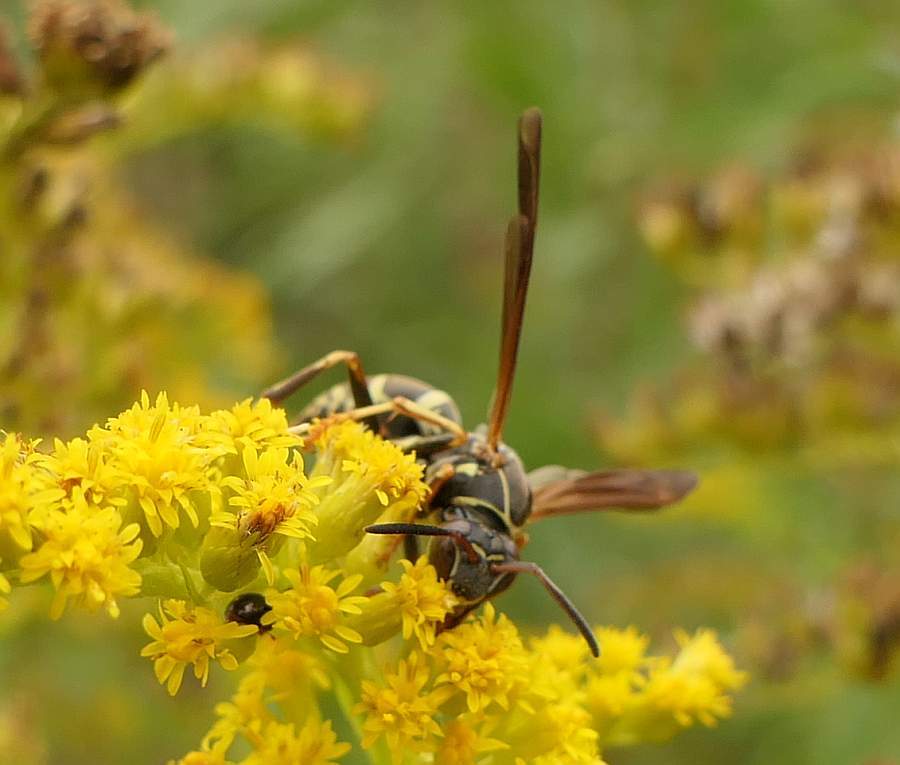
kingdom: Animalia
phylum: Arthropoda
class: Insecta
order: Hymenoptera
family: Eumenidae
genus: Polistes
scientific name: Polistes fuscatus
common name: Dark paper wasp
